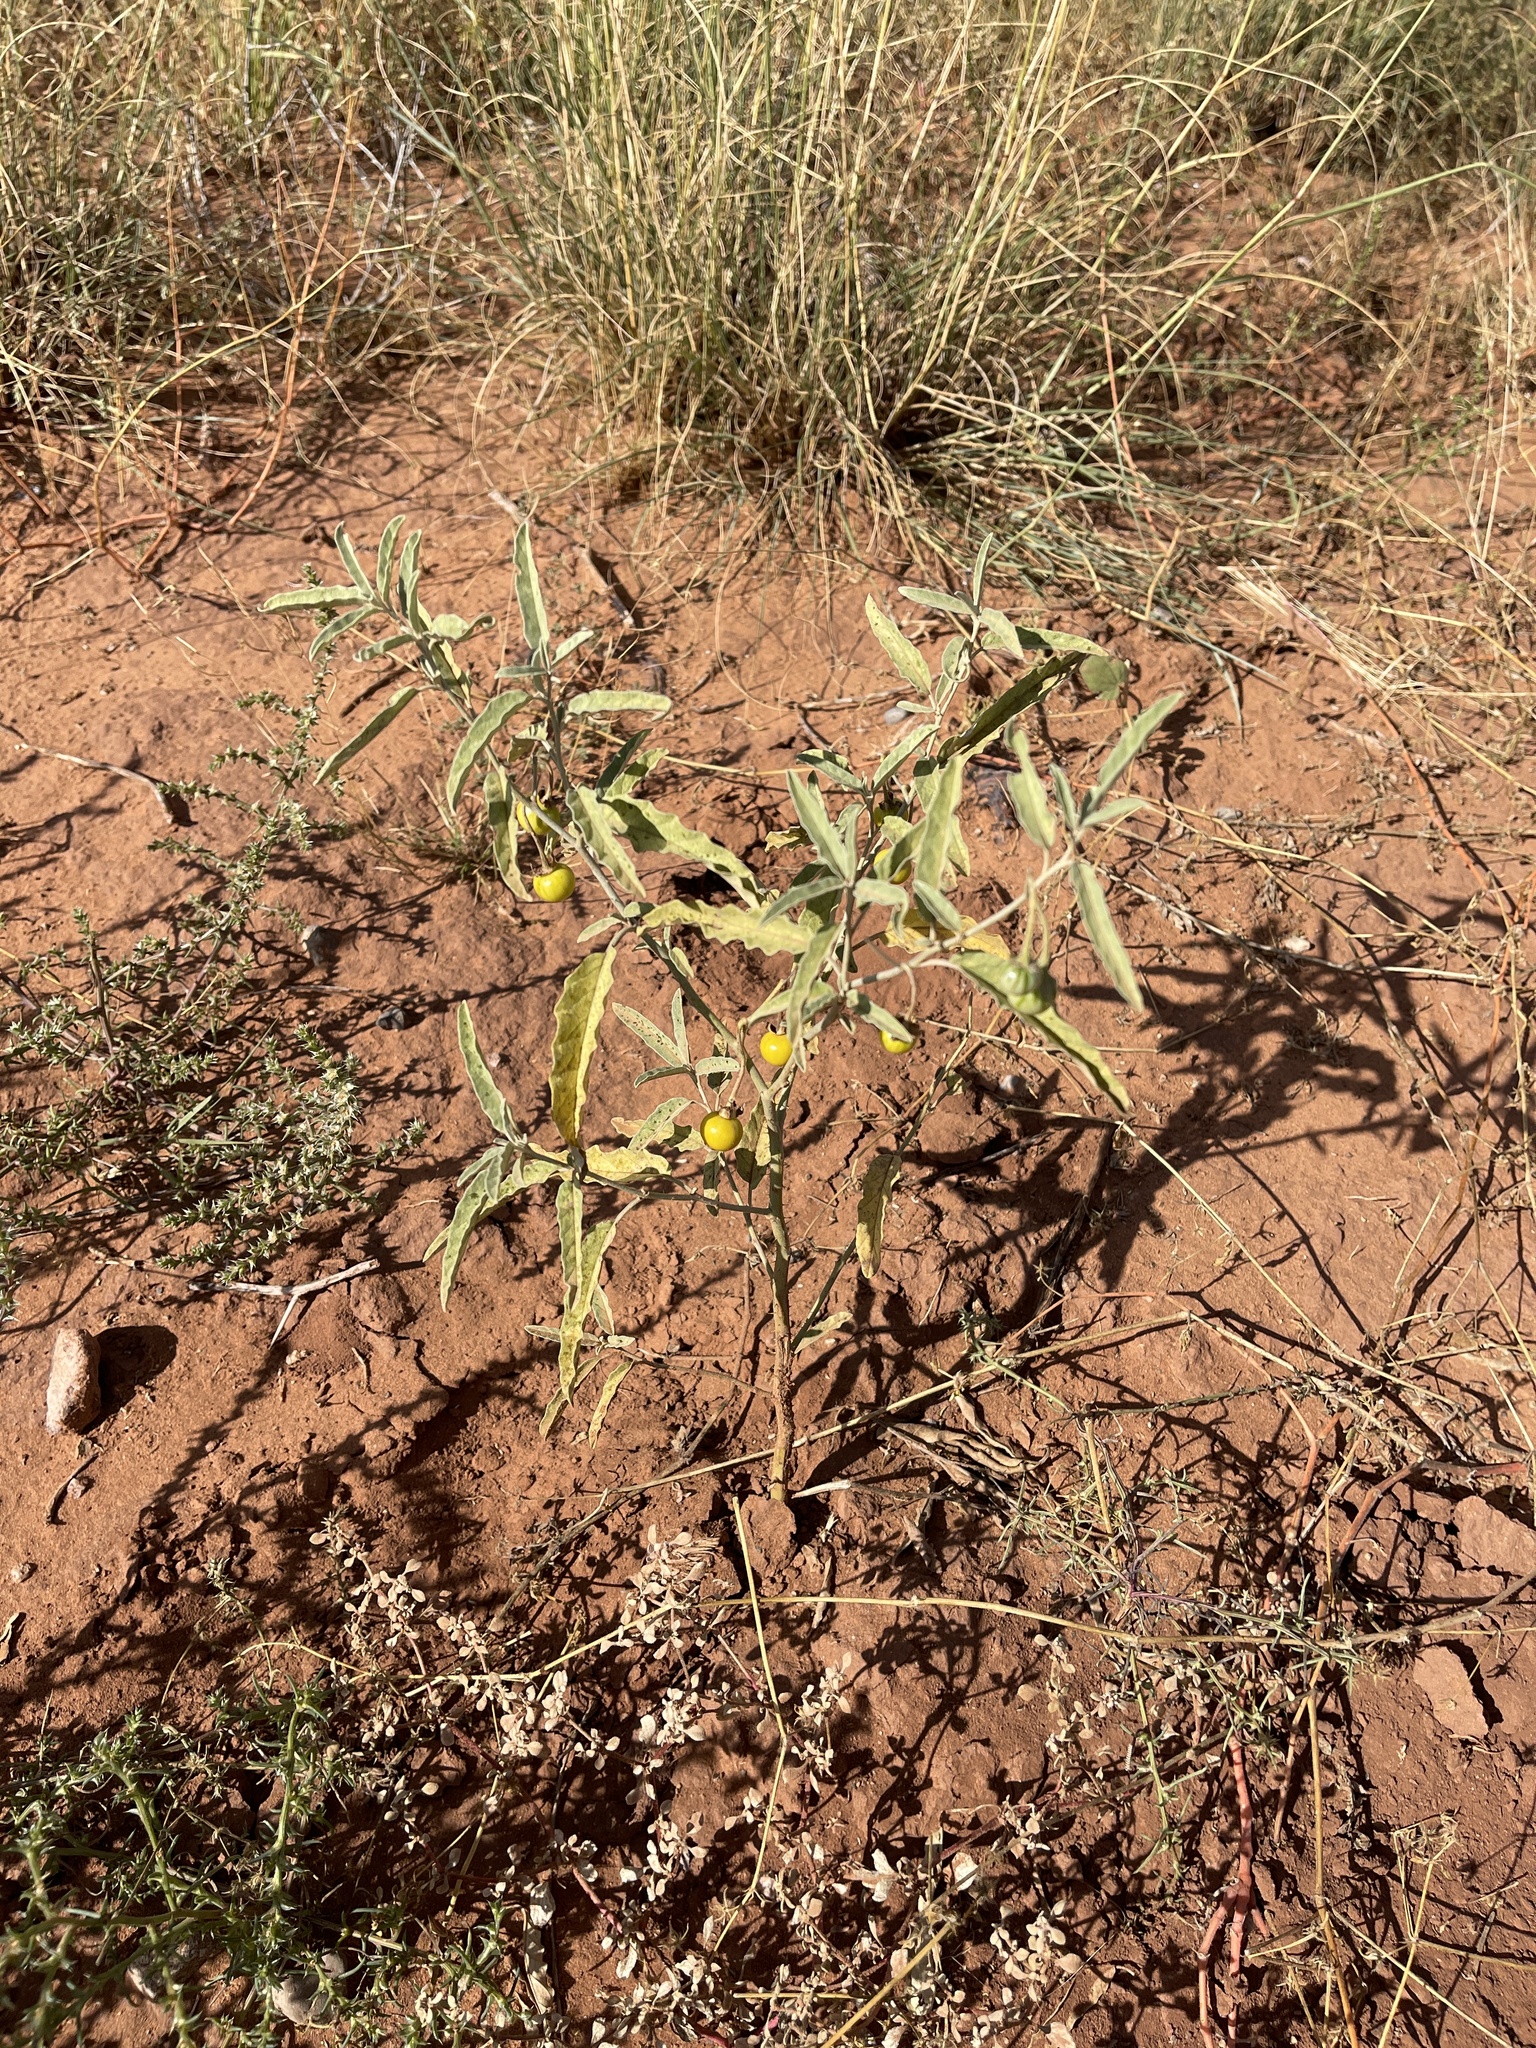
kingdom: Plantae
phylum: Tracheophyta
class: Magnoliopsida
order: Solanales
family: Solanaceae
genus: Solanum
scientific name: Solanum elaeagnifolium
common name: Silverleaf nightshade
